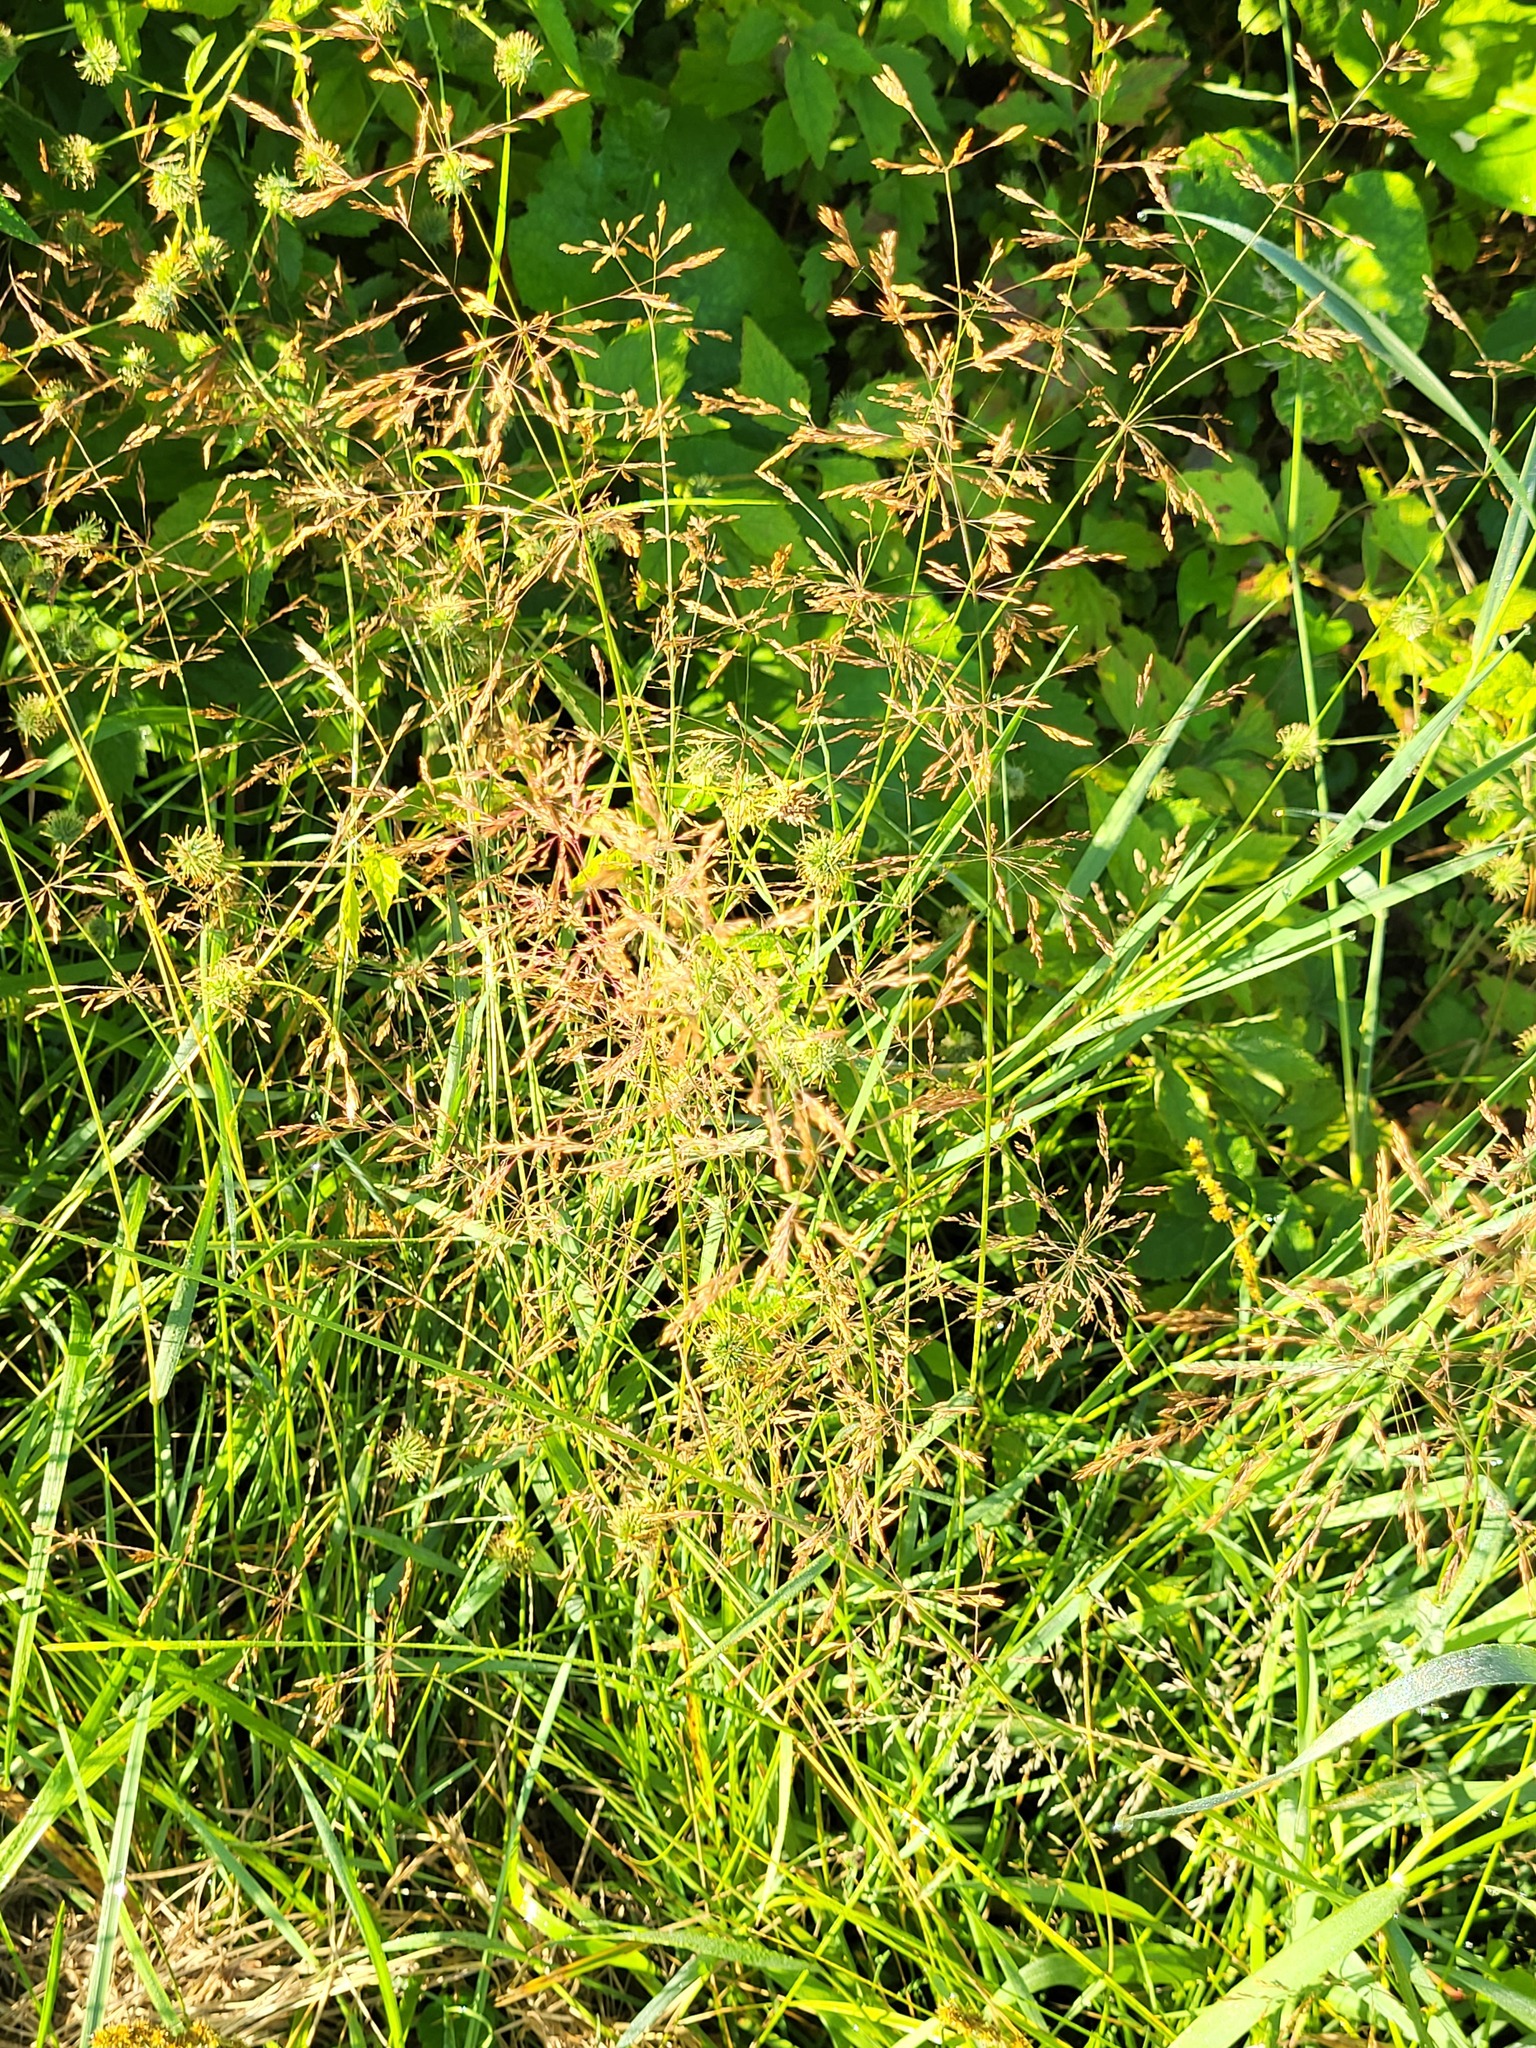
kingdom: Plantae
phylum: Tracheophyta
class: Liliopsida
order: Poales
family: Poaceae
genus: Agrostis
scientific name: Agrostis gigantea
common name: Black bent
